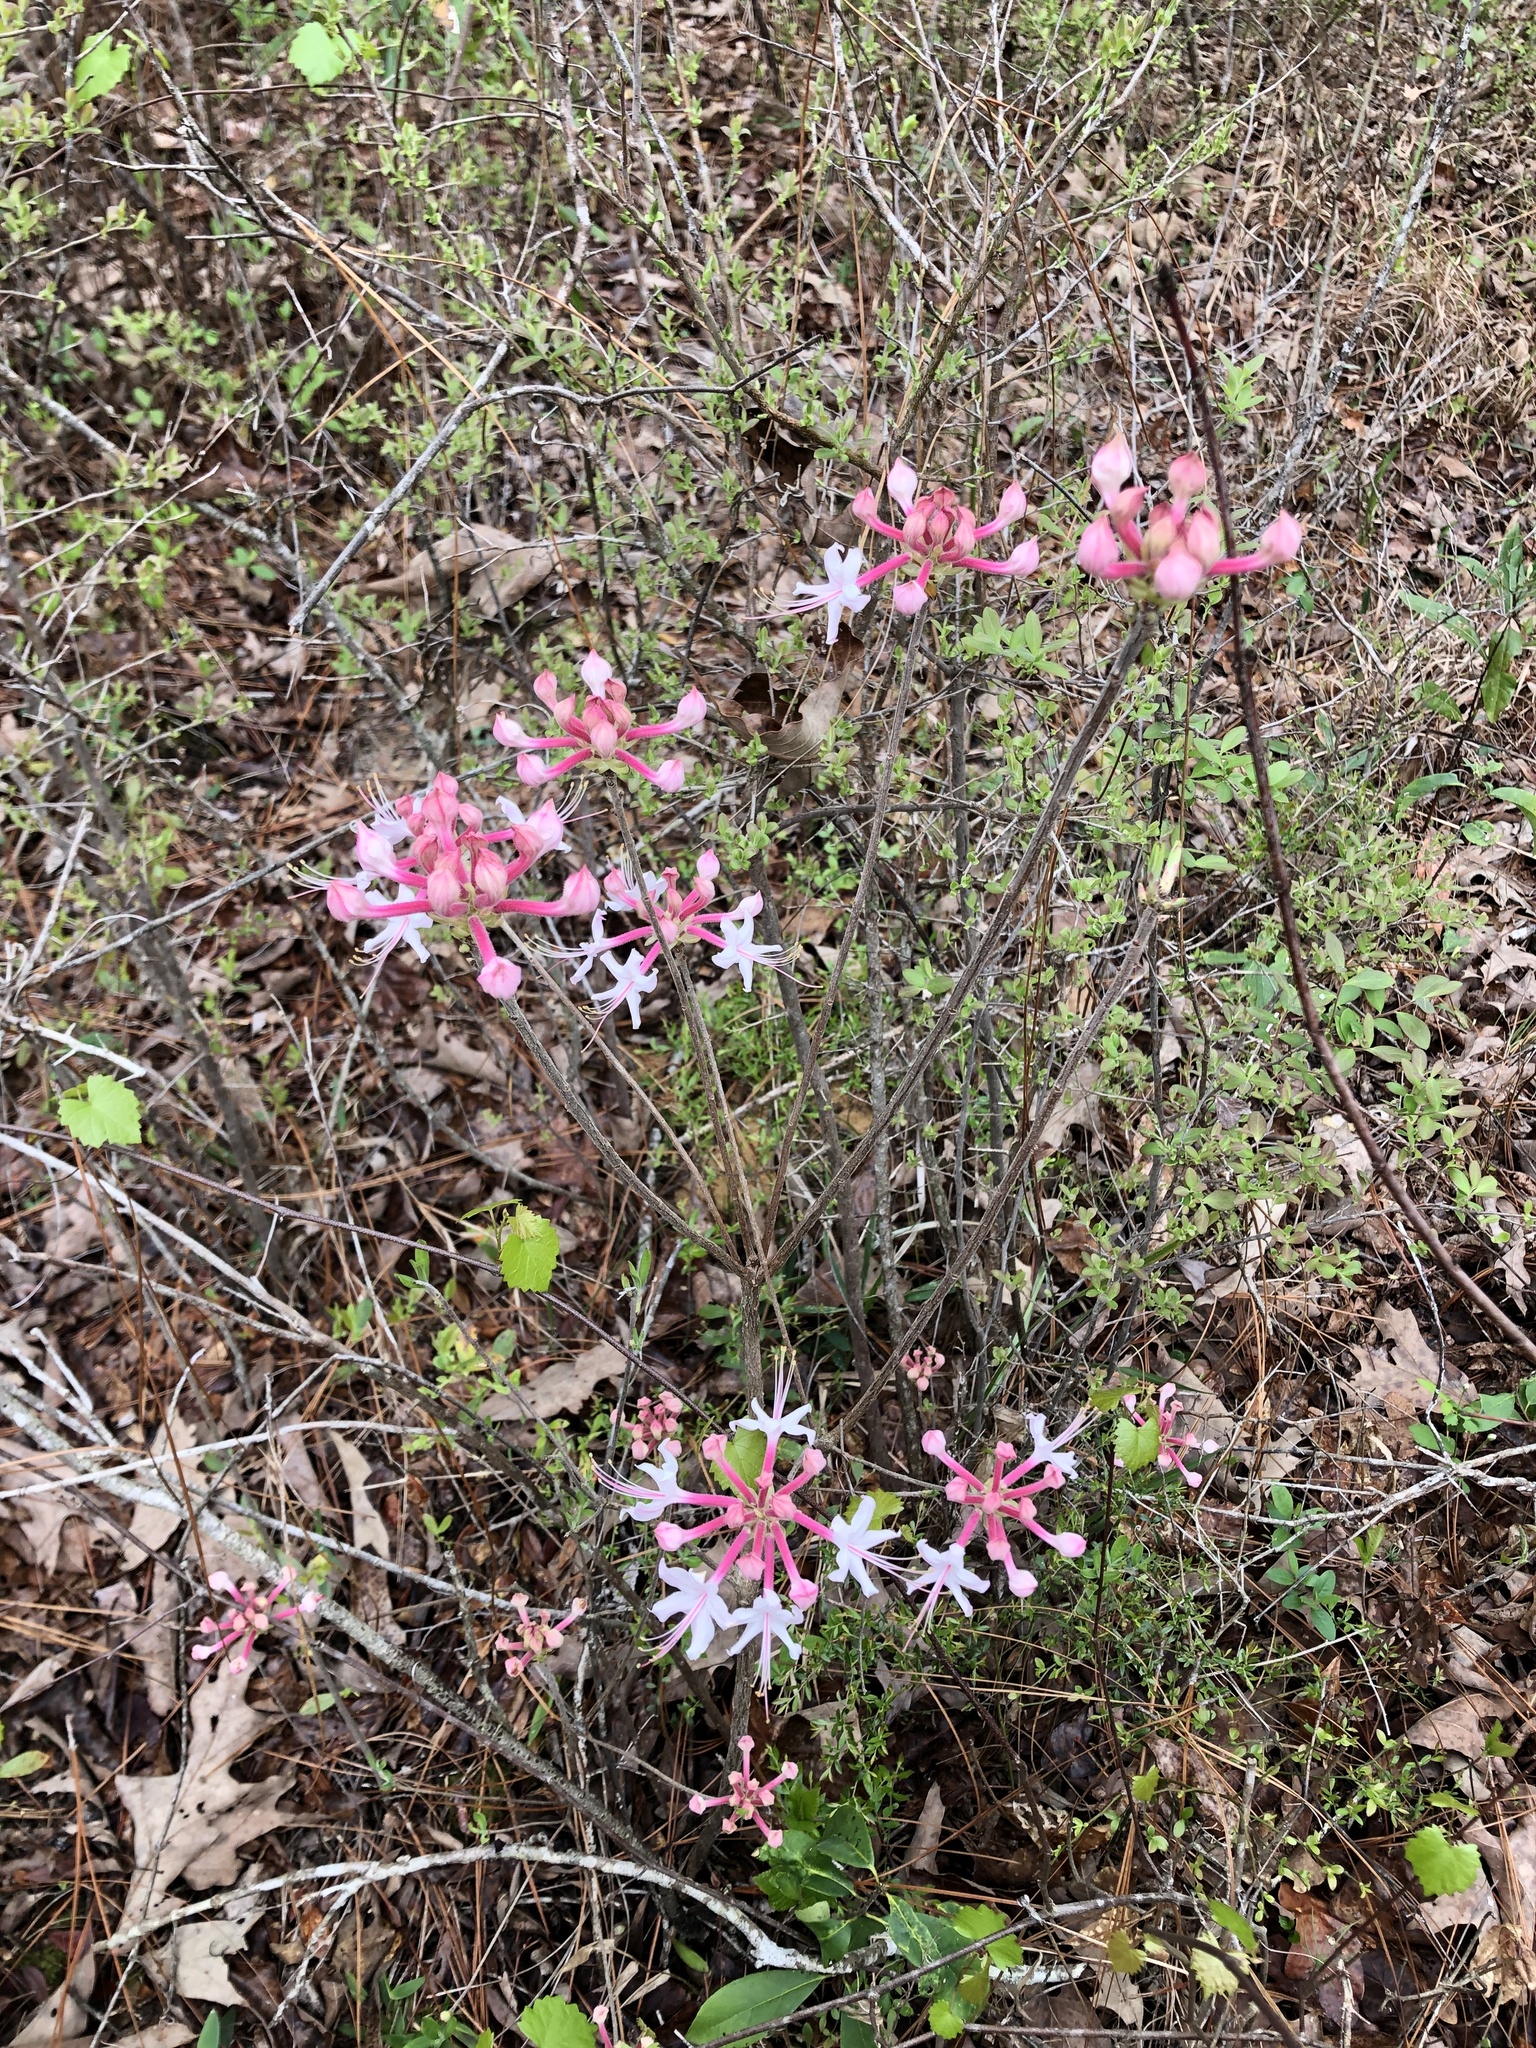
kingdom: Plantae
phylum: Tracheophyta
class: Magnoliopsida
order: Ericales
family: Ericaceae
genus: Rhododendron
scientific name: Rhododendron canescens
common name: Mountain azalea
